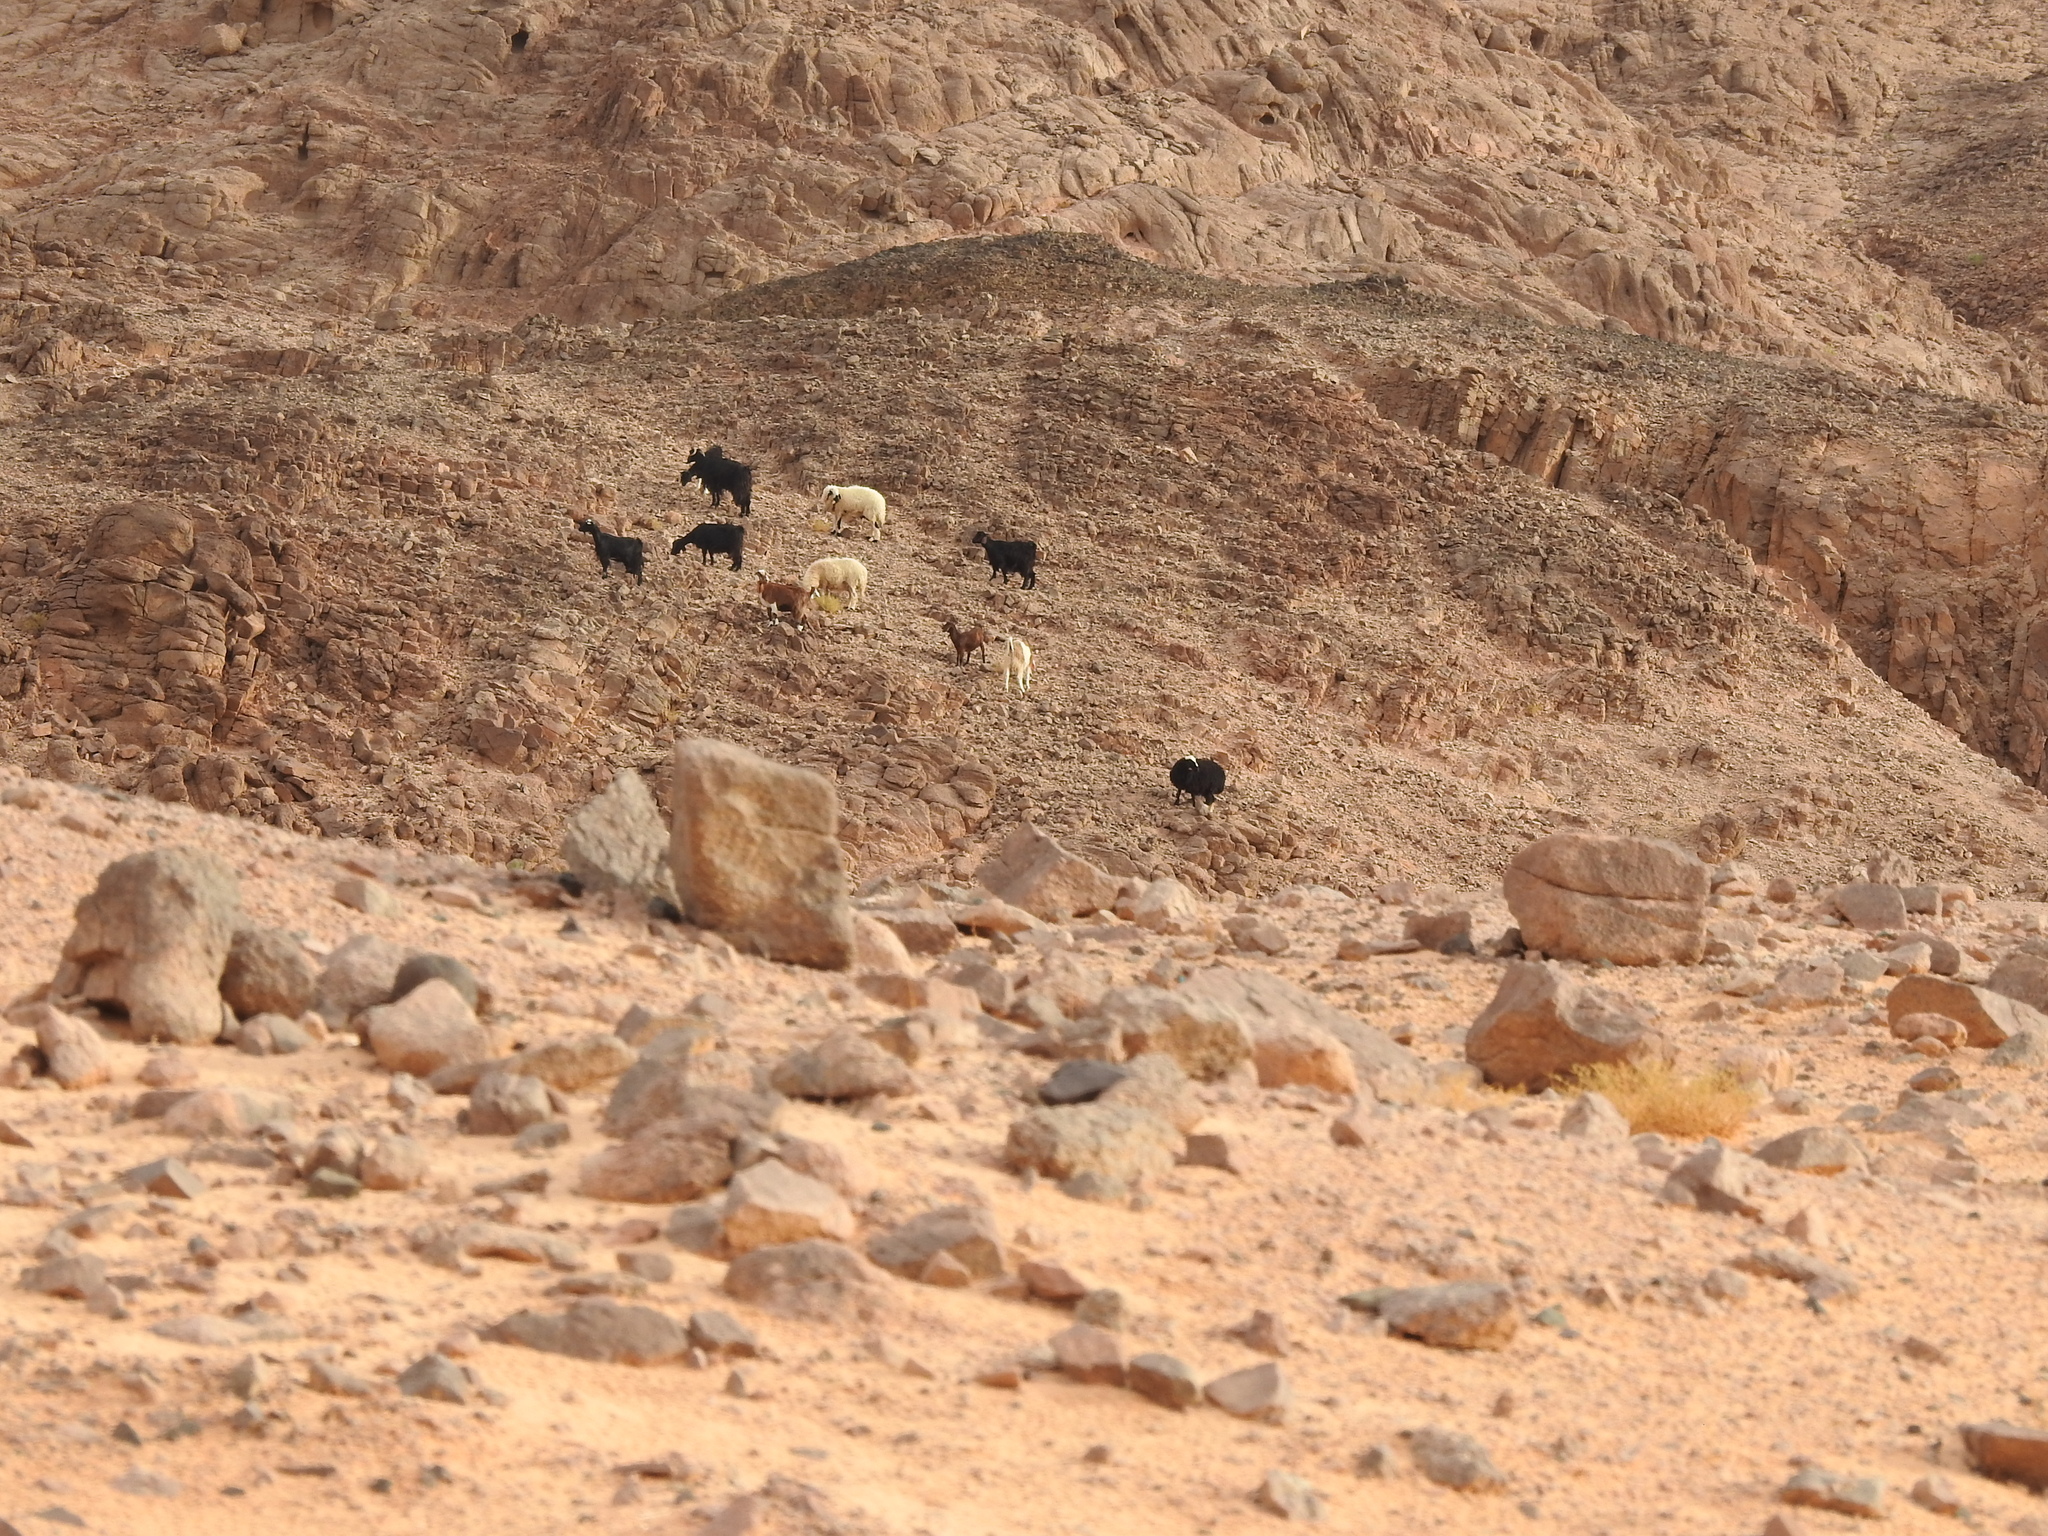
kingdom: Animalia
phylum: Chordata
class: Mammalia
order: Artiodactyla
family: Bovidae
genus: Capra
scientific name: Capra hircus
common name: Domestic goat
